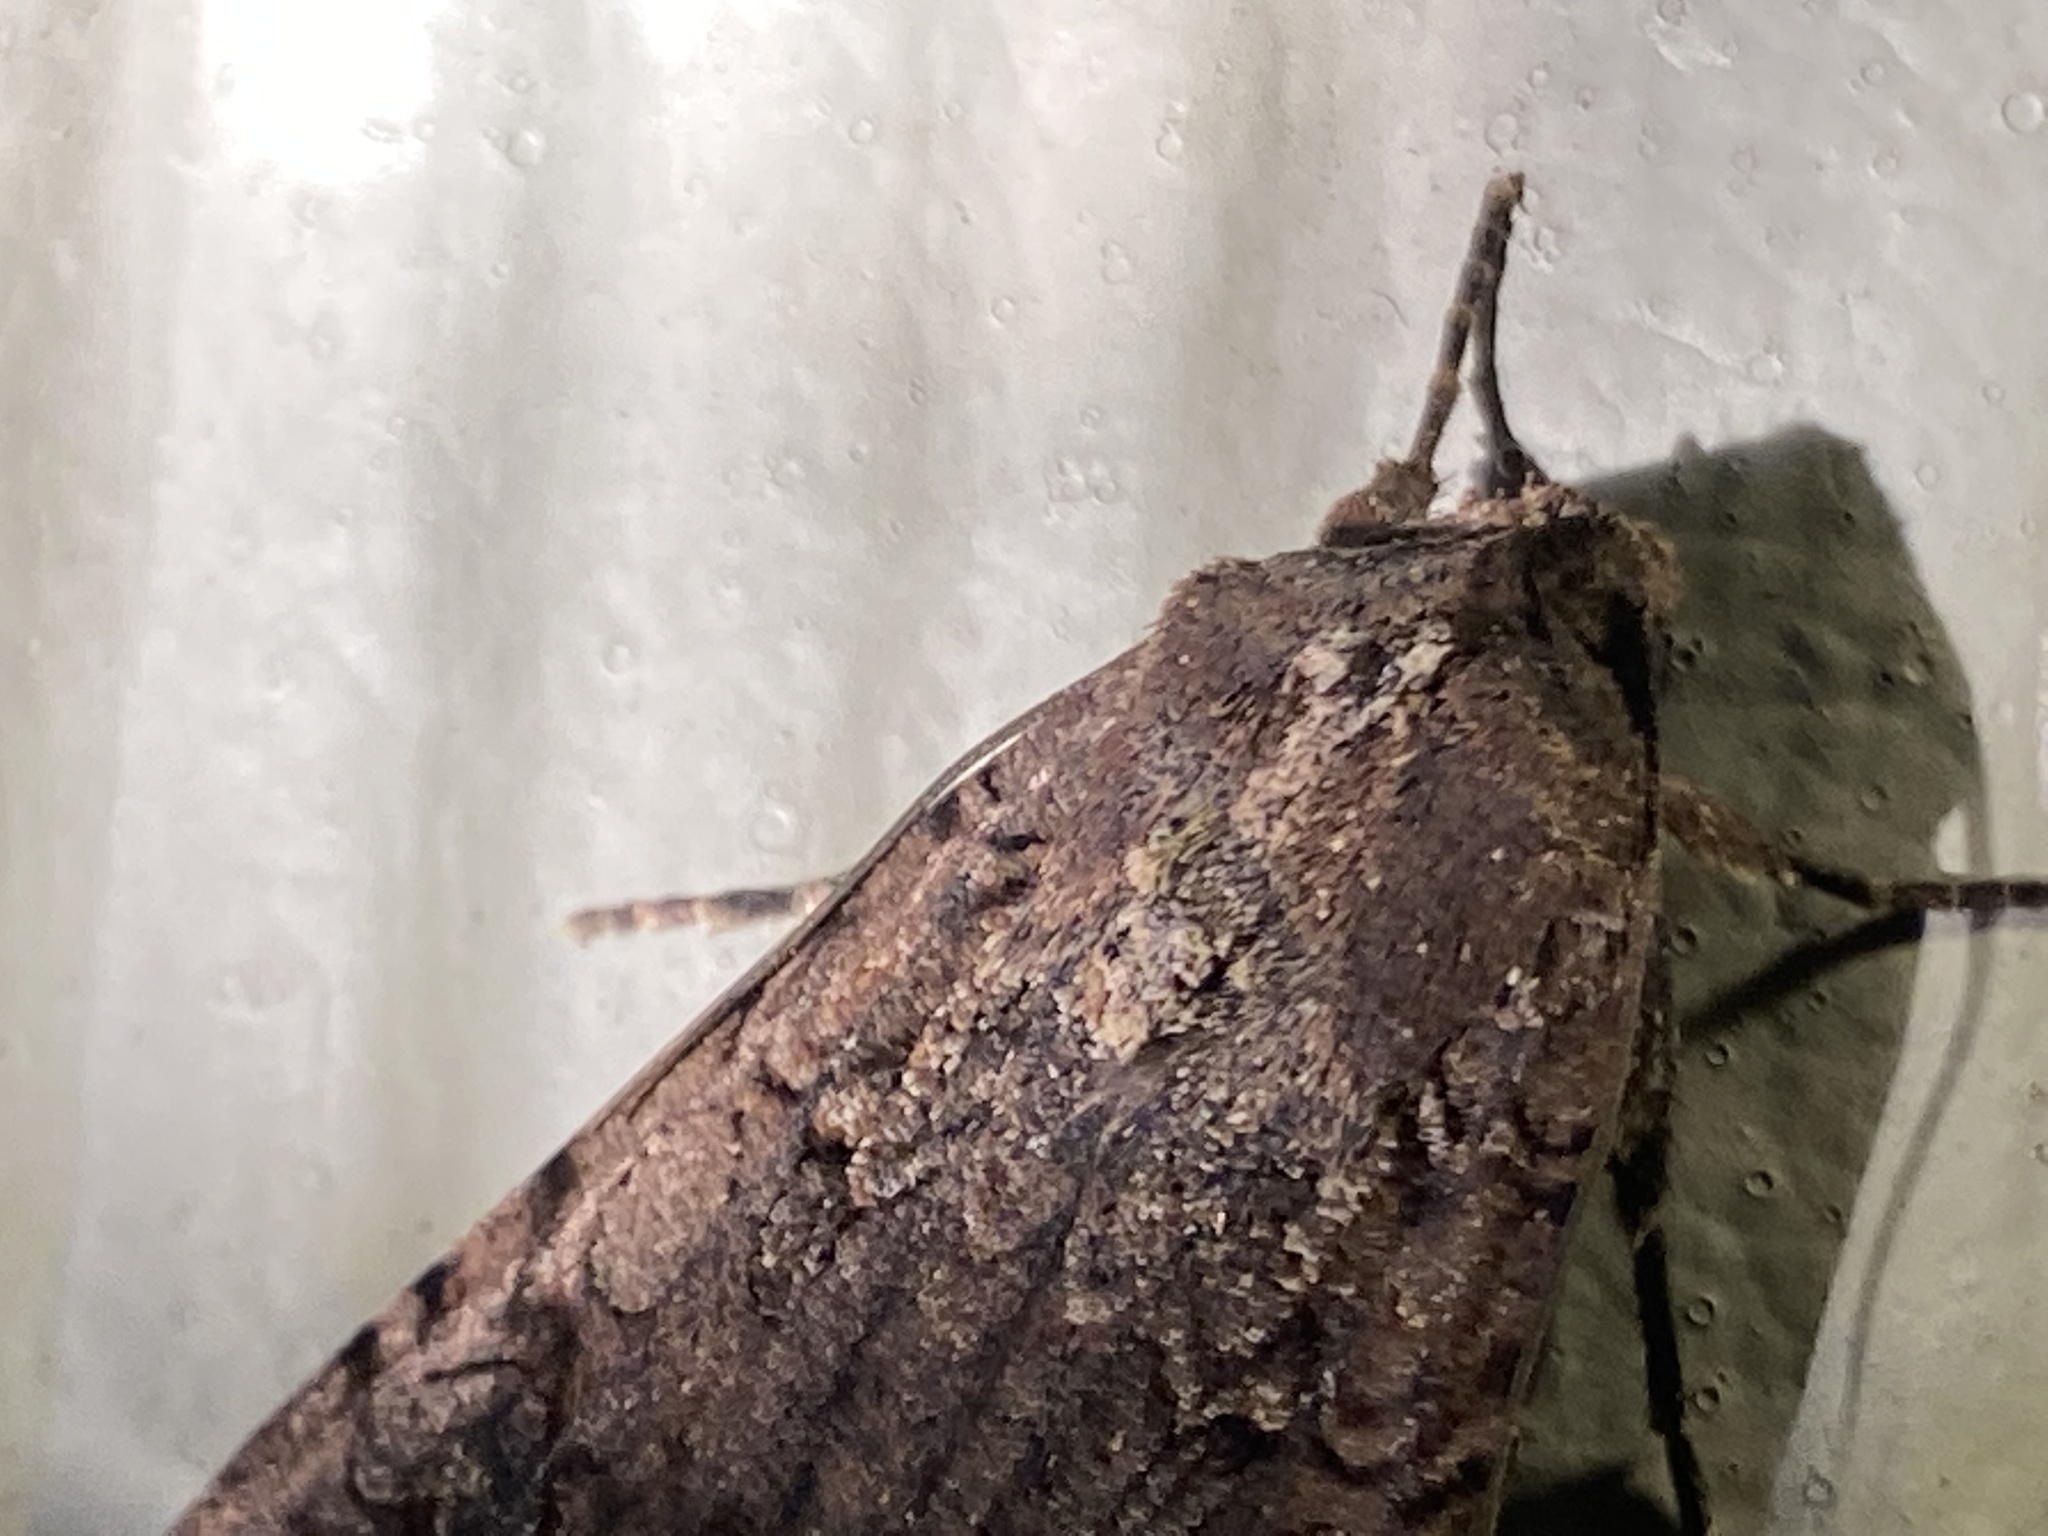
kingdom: Animalia
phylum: Arthropoda
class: Insecta
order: Lepidoptera
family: Noctuidae
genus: Peridroma
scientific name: Peridroma saucia
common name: Pearly underwing
